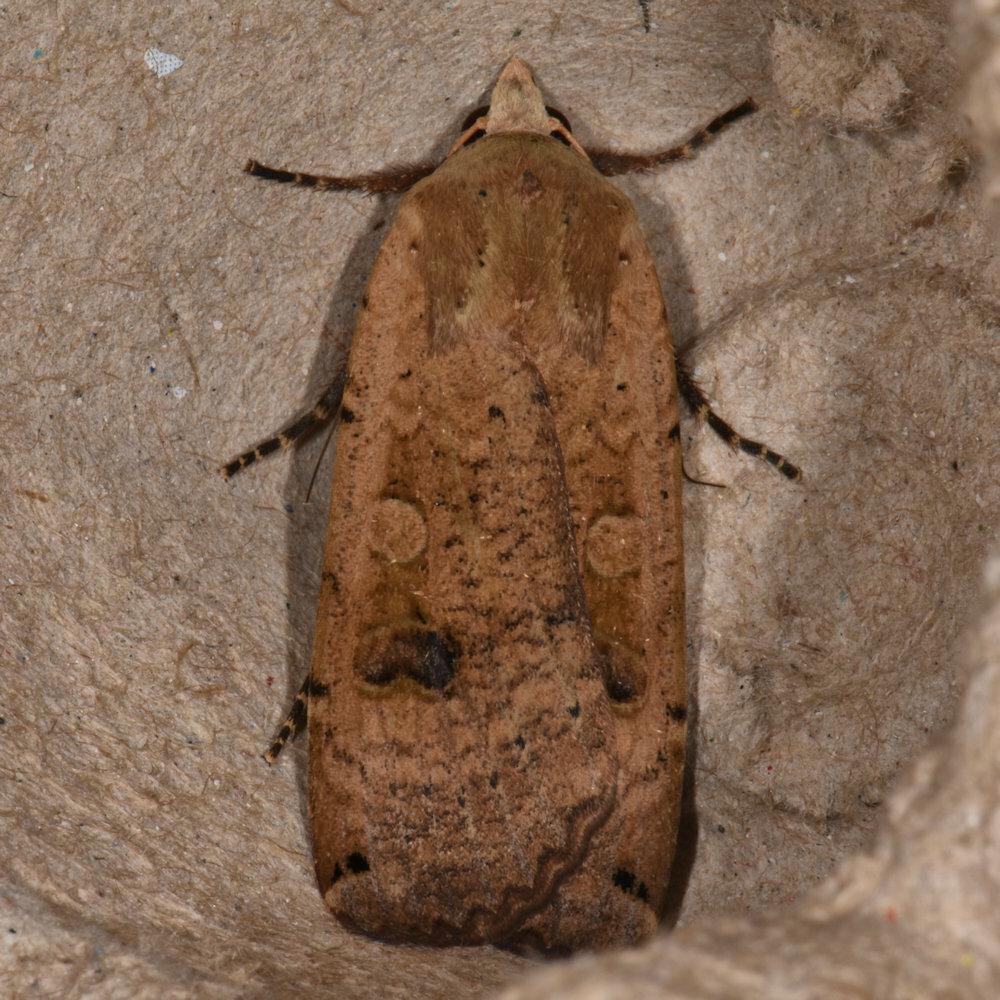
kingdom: Animalia
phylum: Arthropoda
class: Insecta
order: Lepidoptera
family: Noctuidae
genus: Noctua
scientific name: Noctua pronuba
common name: Large yellow underwing
